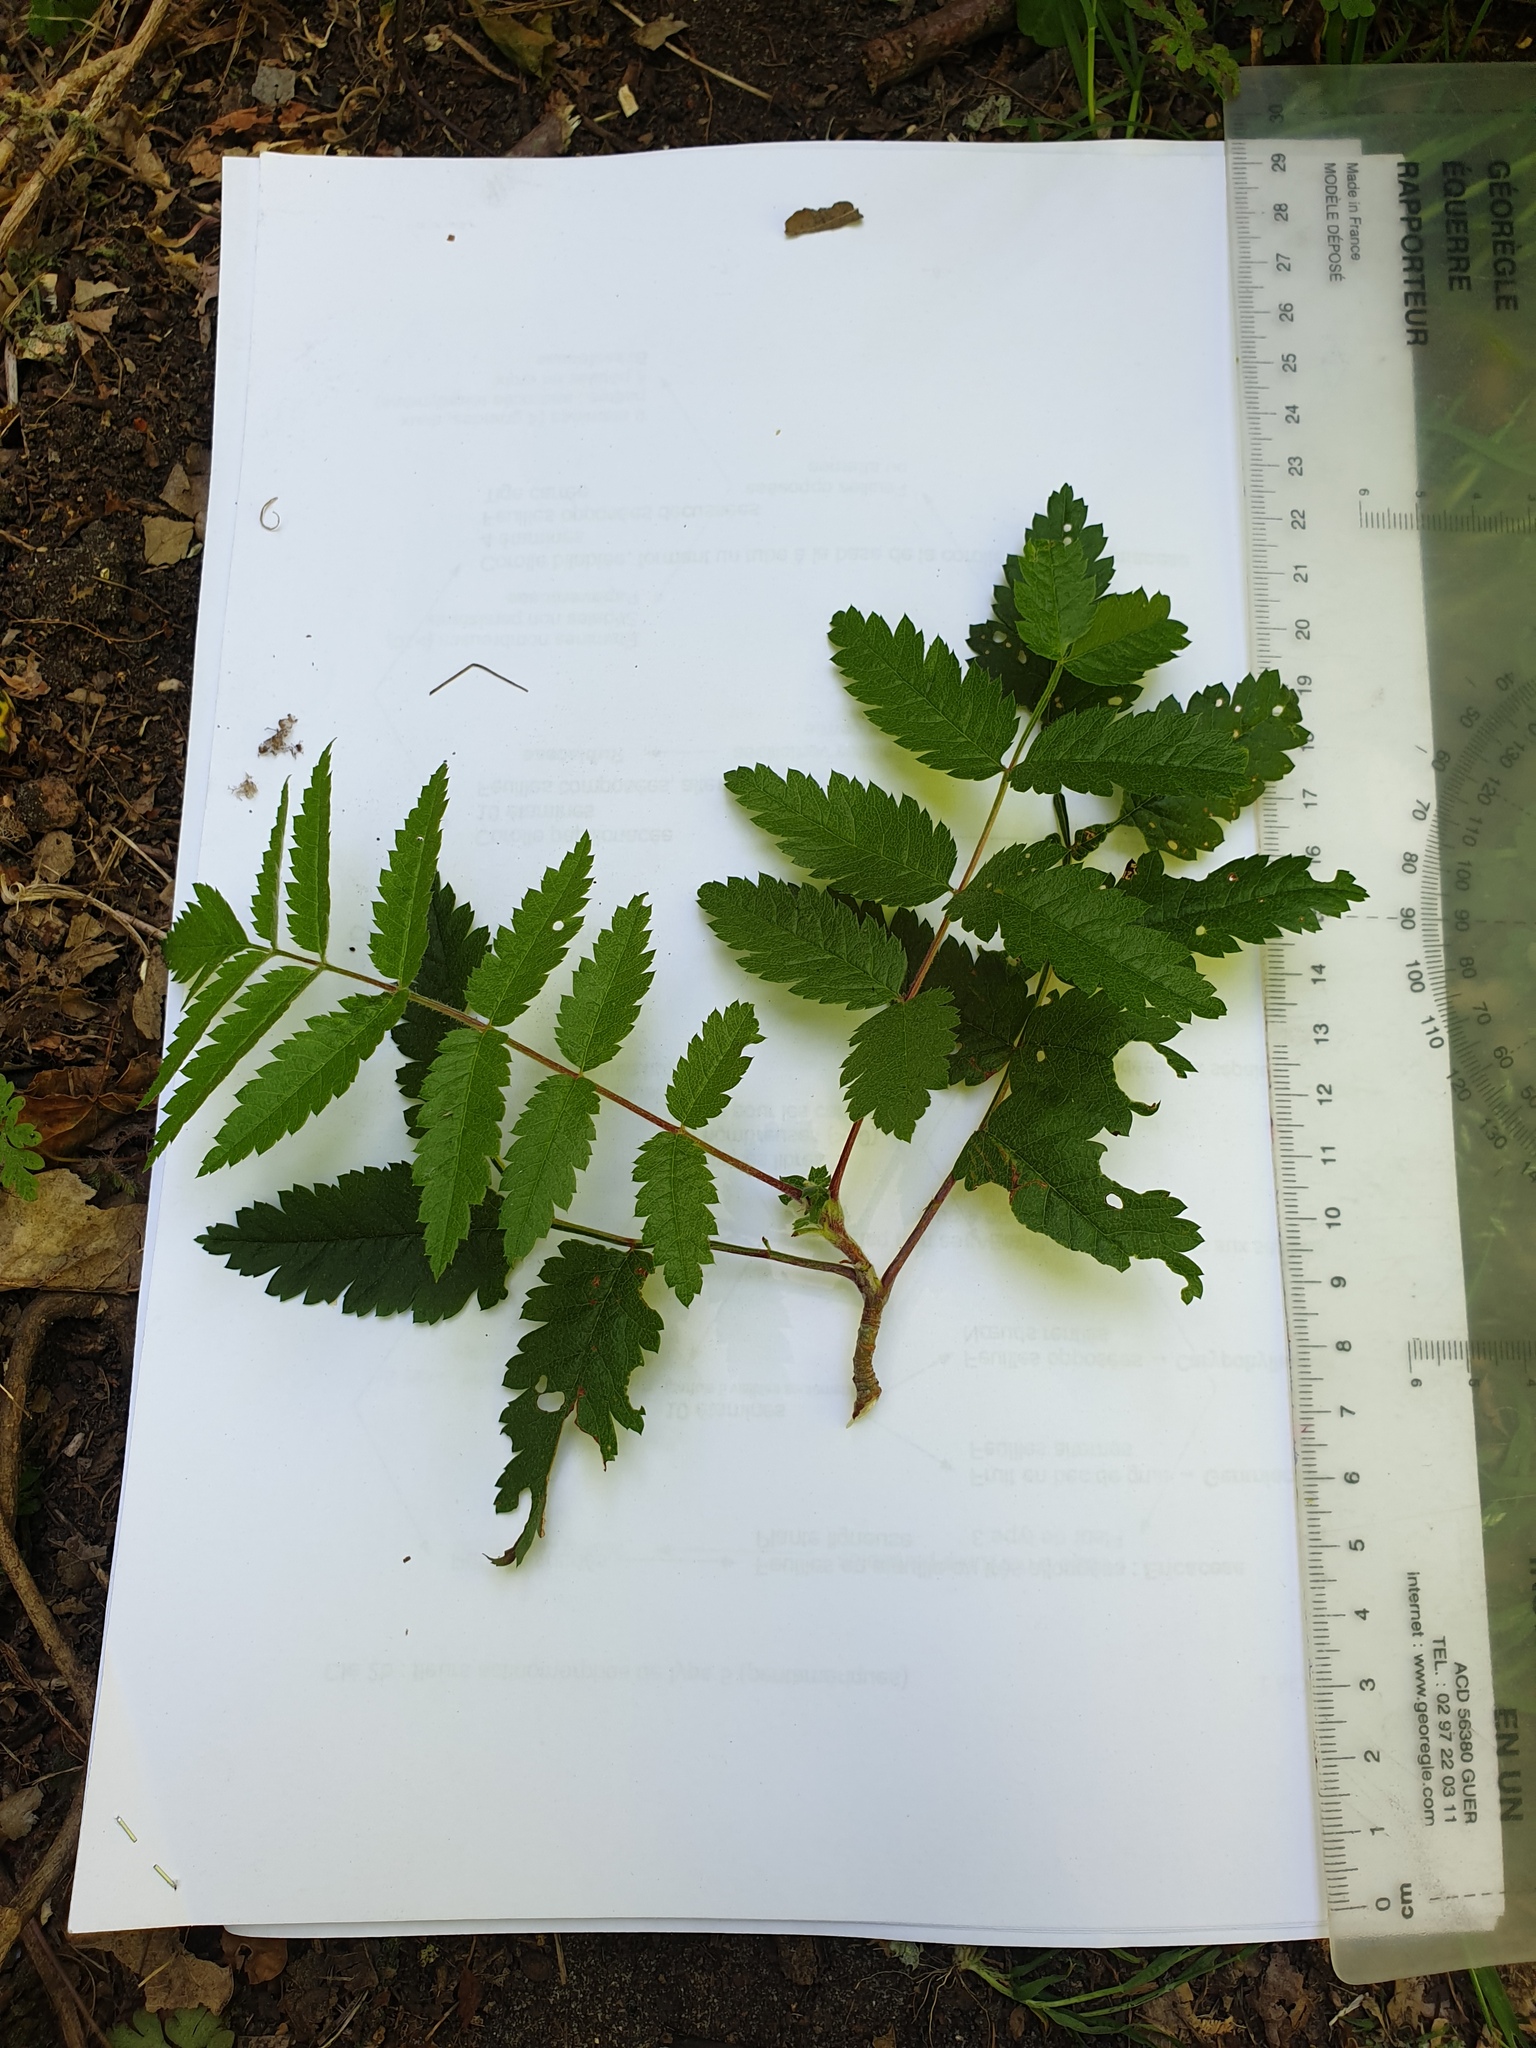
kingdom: Plantae
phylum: Tracheophyta
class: Magnoliopsida
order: Rosales
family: Rosaceae
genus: Sorbus
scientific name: Sorbus aucuparia
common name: Rowan
